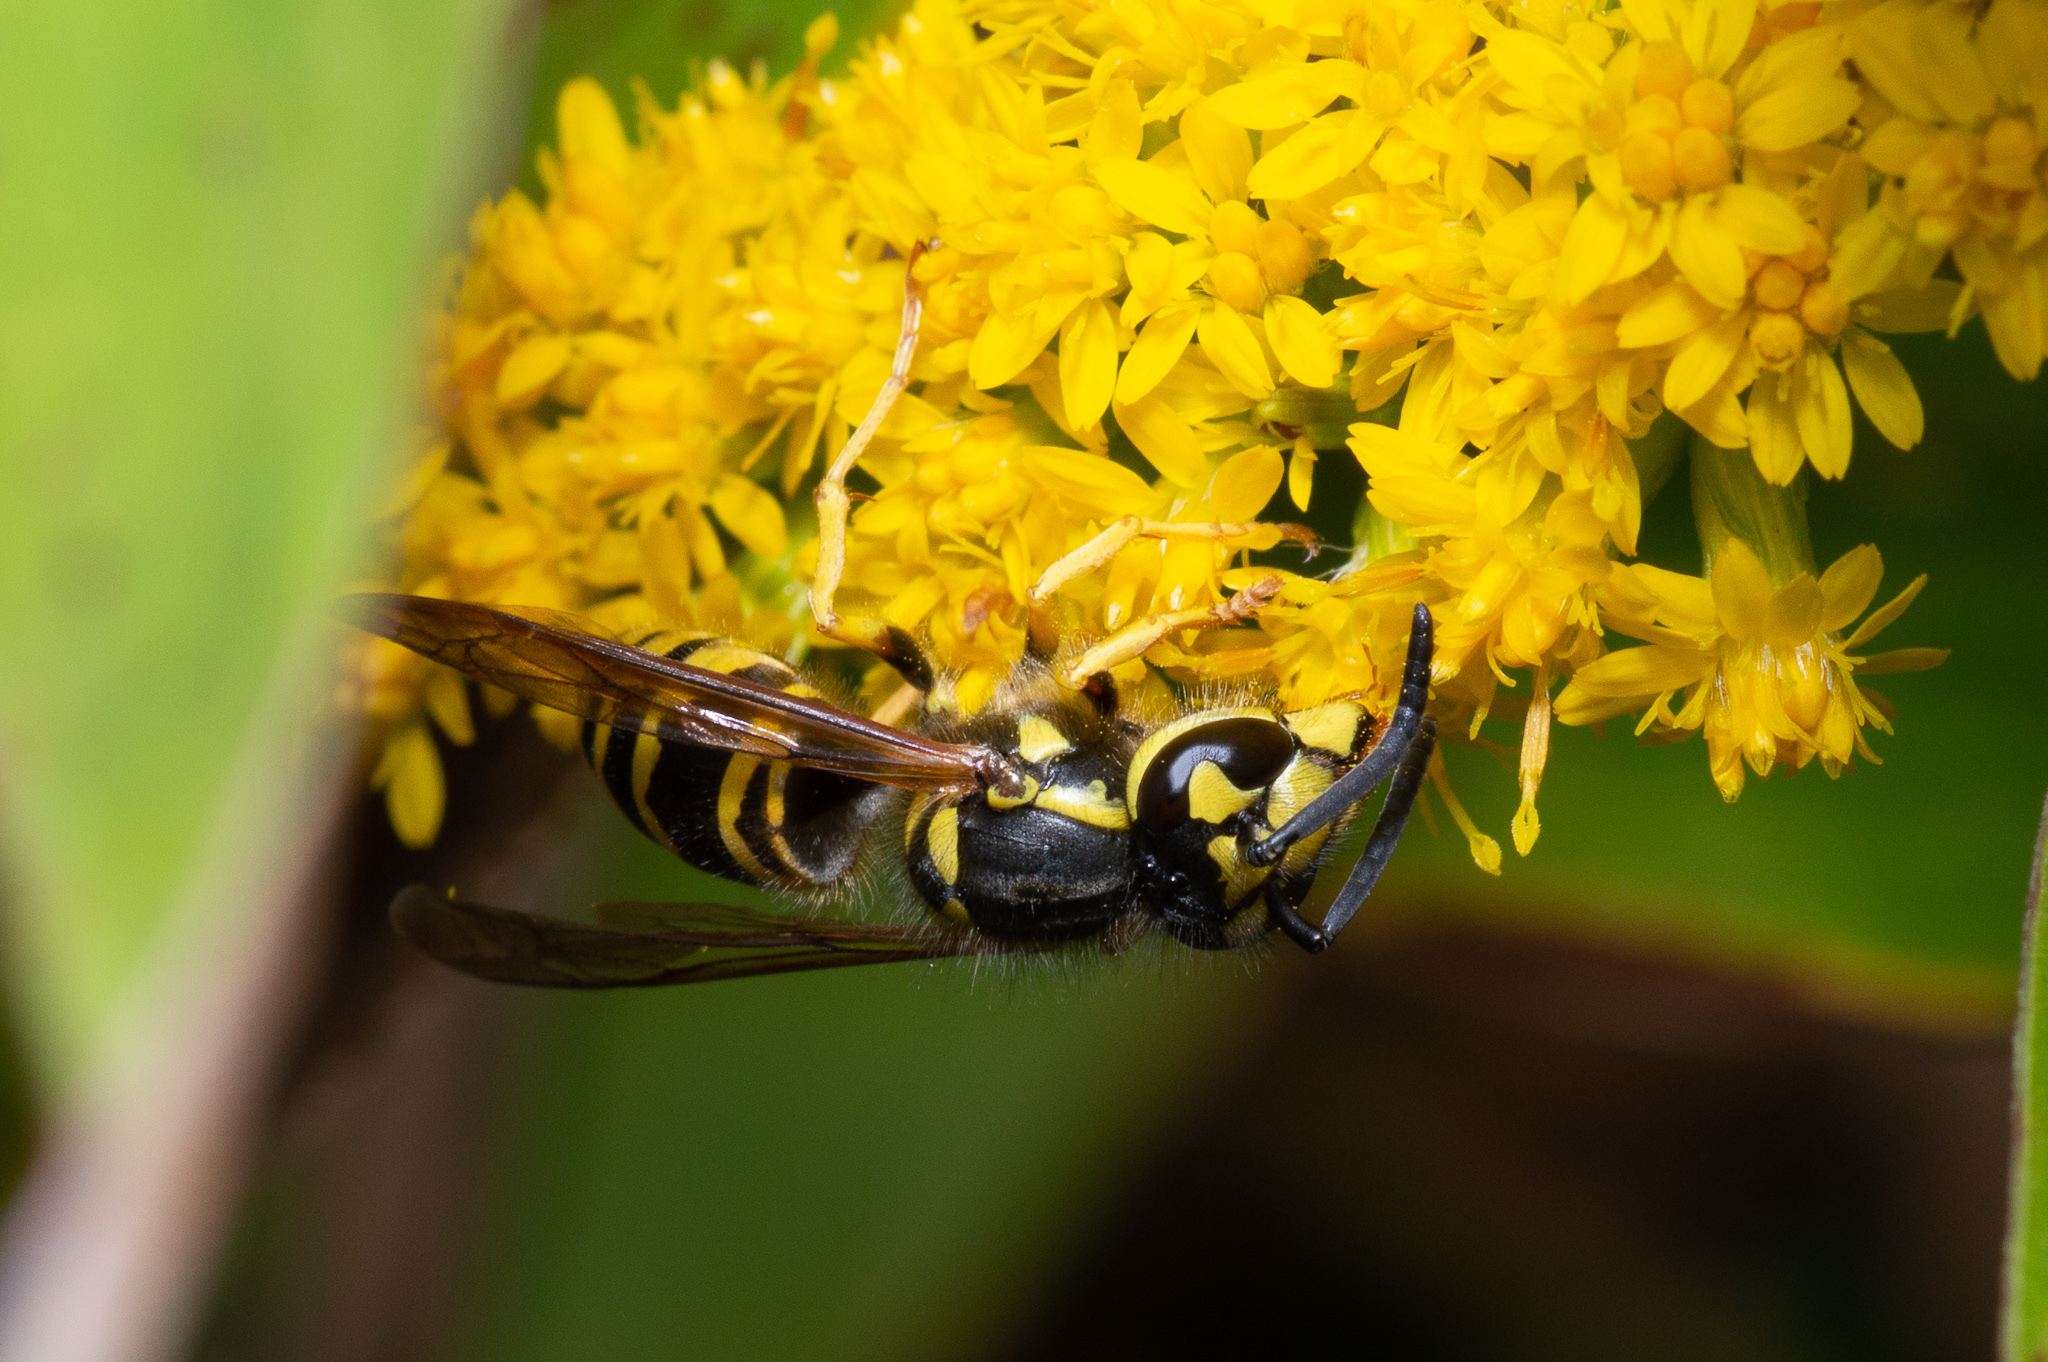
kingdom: Animalia
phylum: Arthropoda
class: Insecta
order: Hymenoptera
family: Vespidae
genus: Vespula
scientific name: Vespula maculifrons
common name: Eastern yellowjacket
